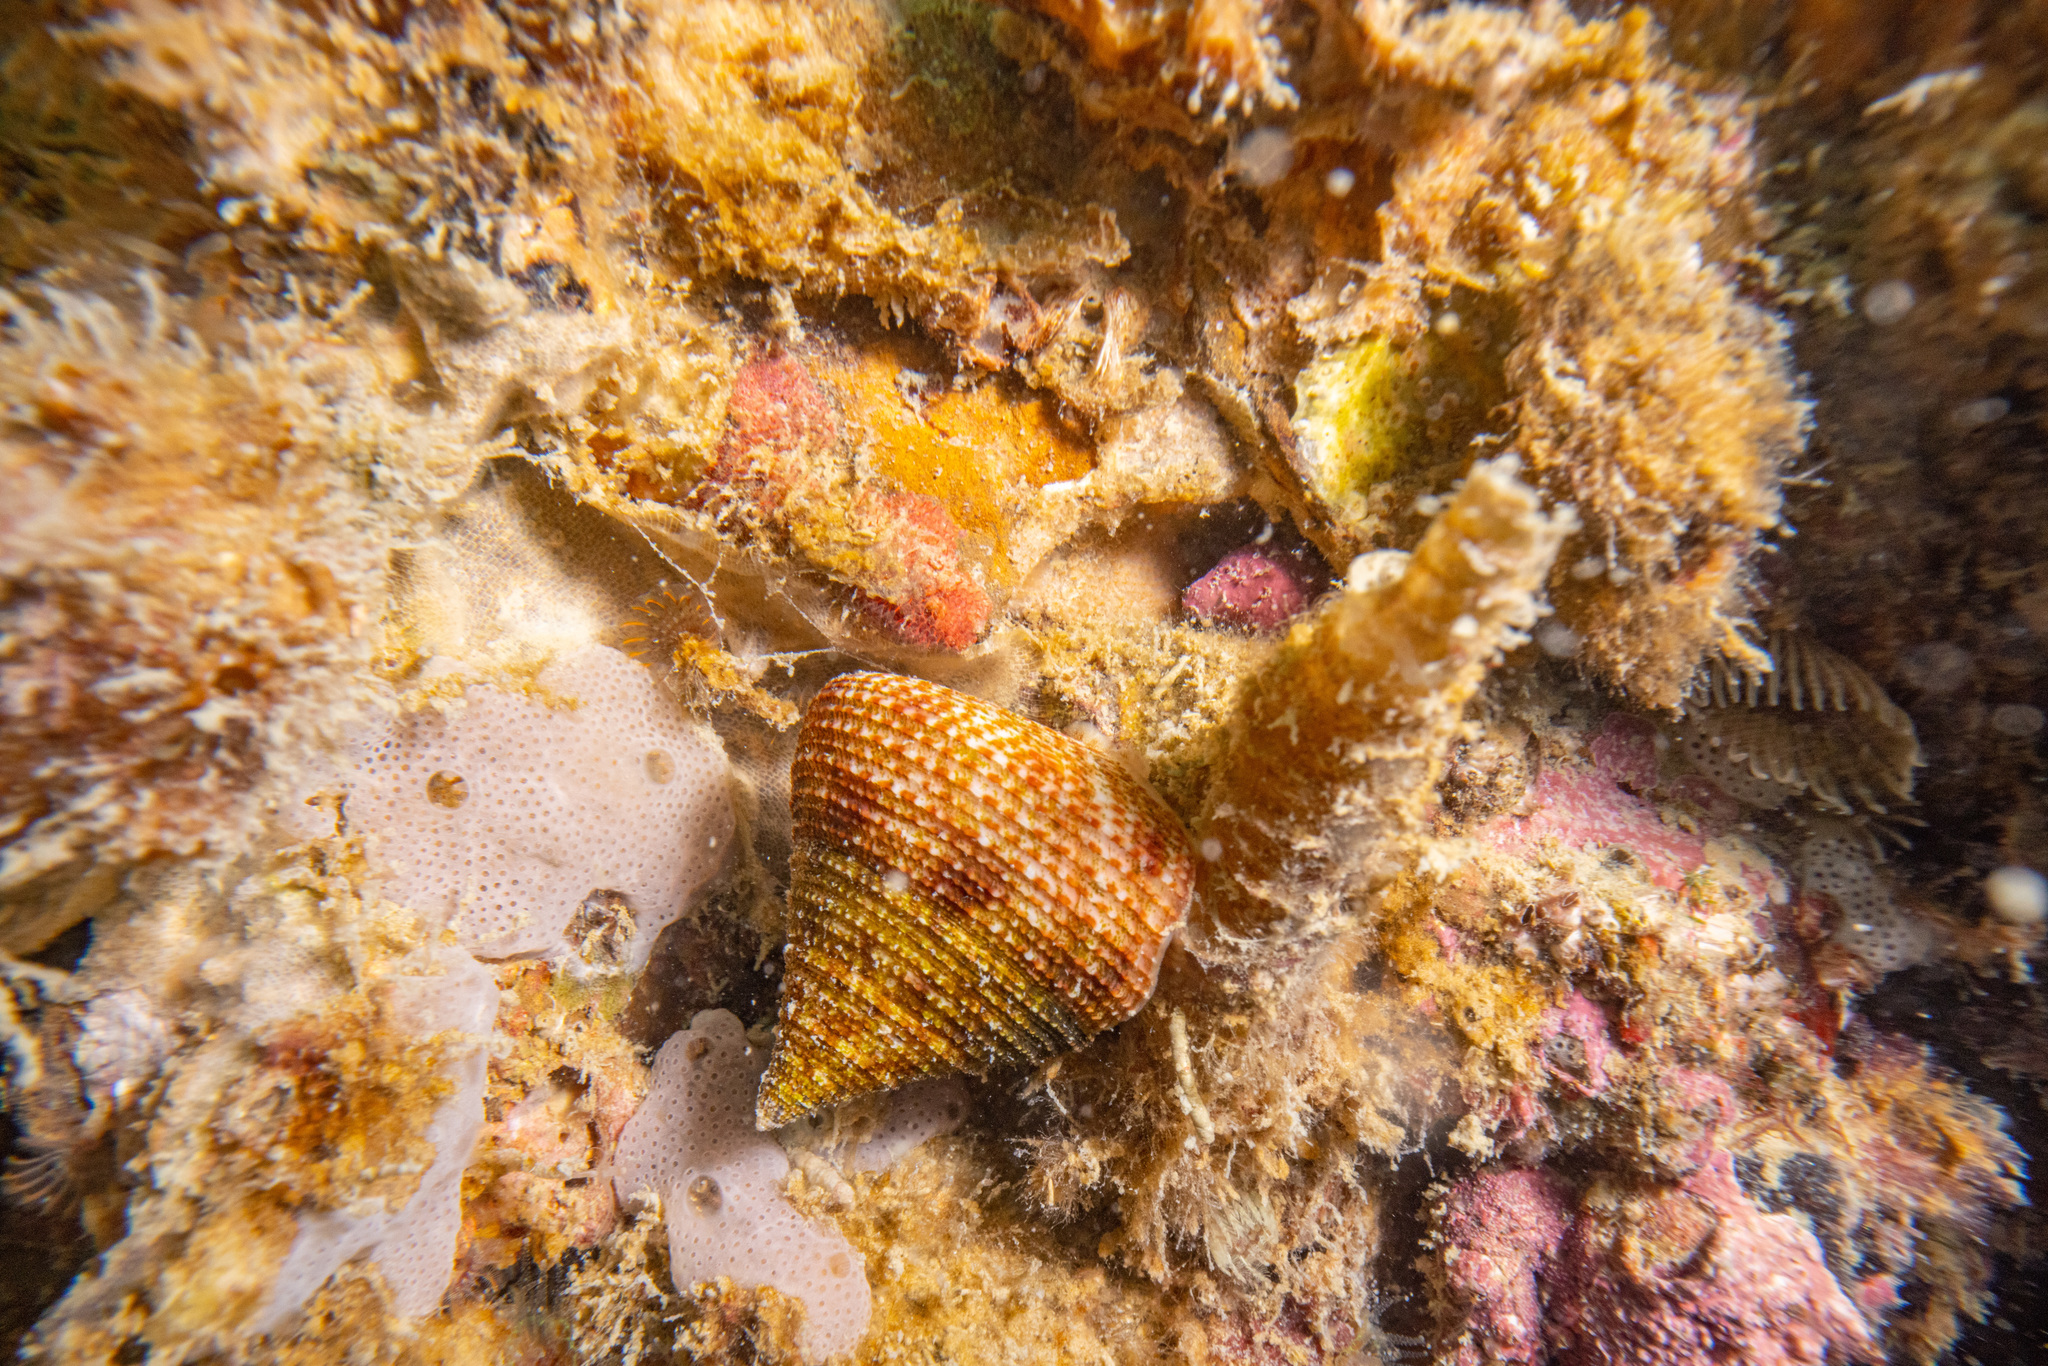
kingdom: Animalia
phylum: Mollusca
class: Gastropoda
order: Trochida
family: Calliostomatidae
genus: Maurea
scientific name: Maurea pellucida
